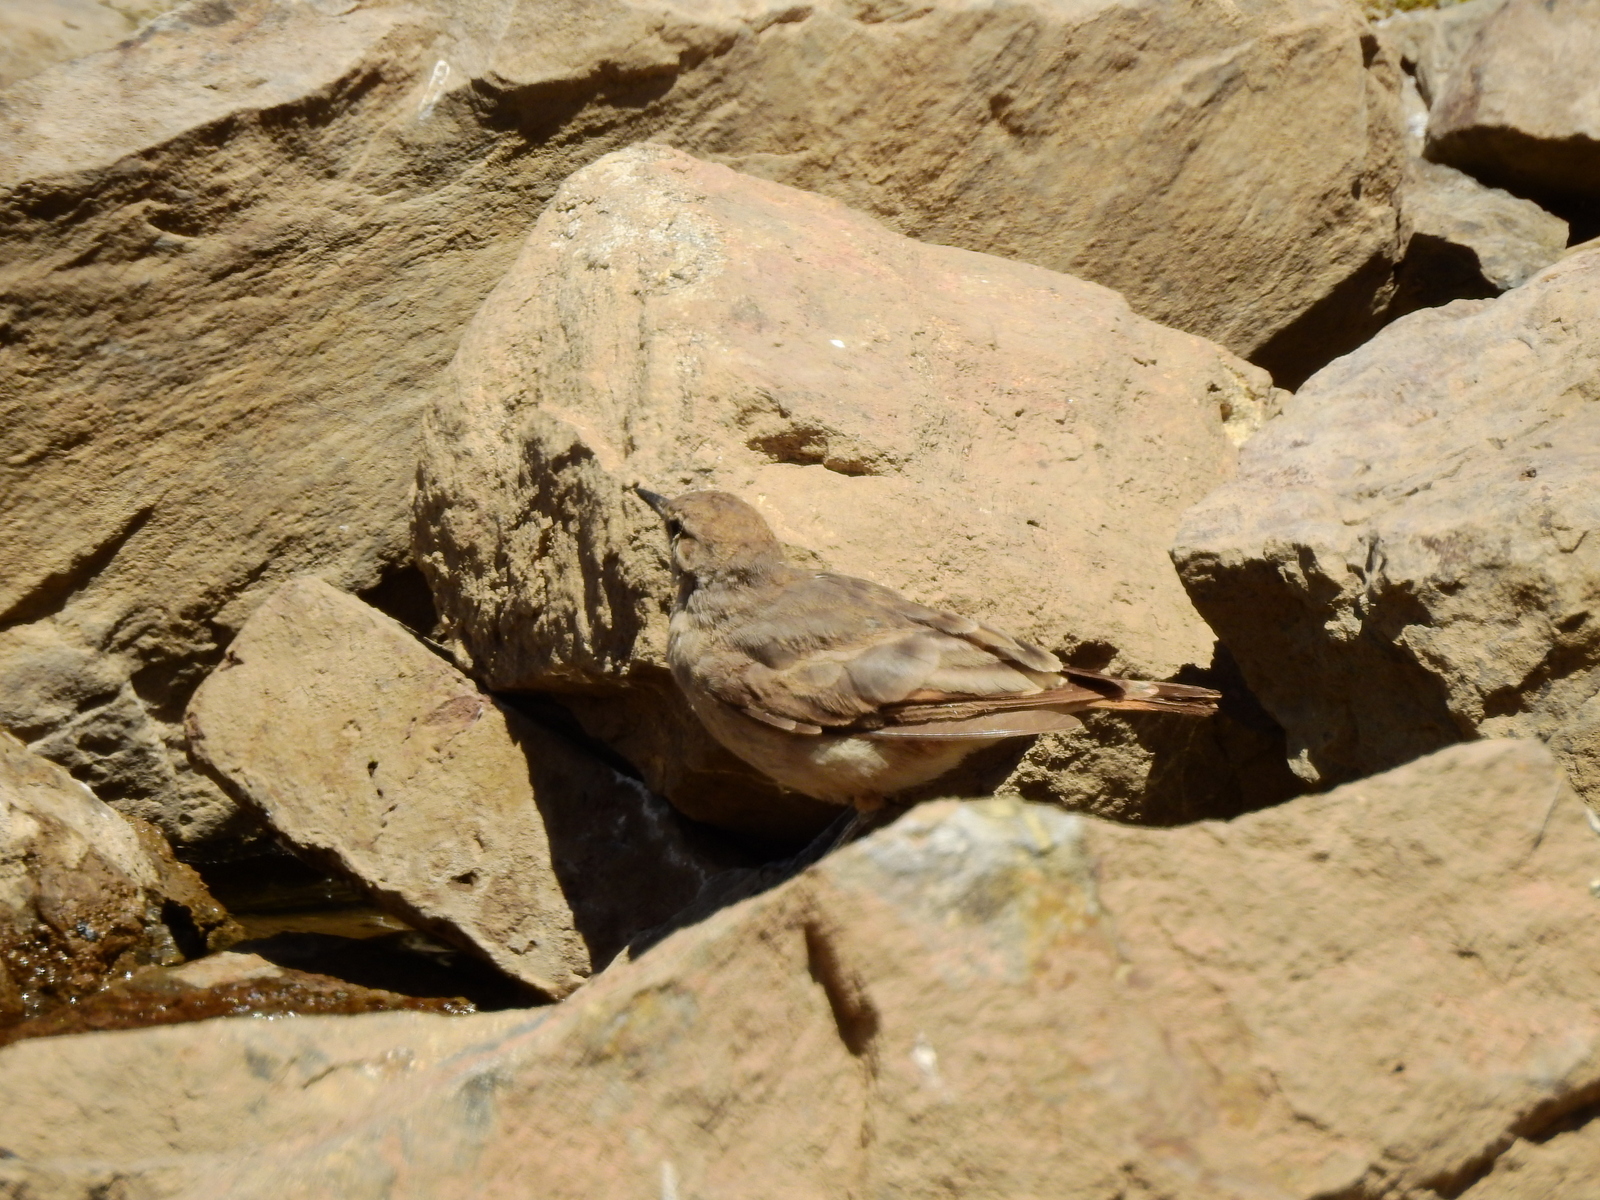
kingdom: Animalia
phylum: Chordata
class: Aves
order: Passeriformes
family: Furnariidae
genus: Geositta
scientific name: Geositta rufipennis
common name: Rufous-banded miner
